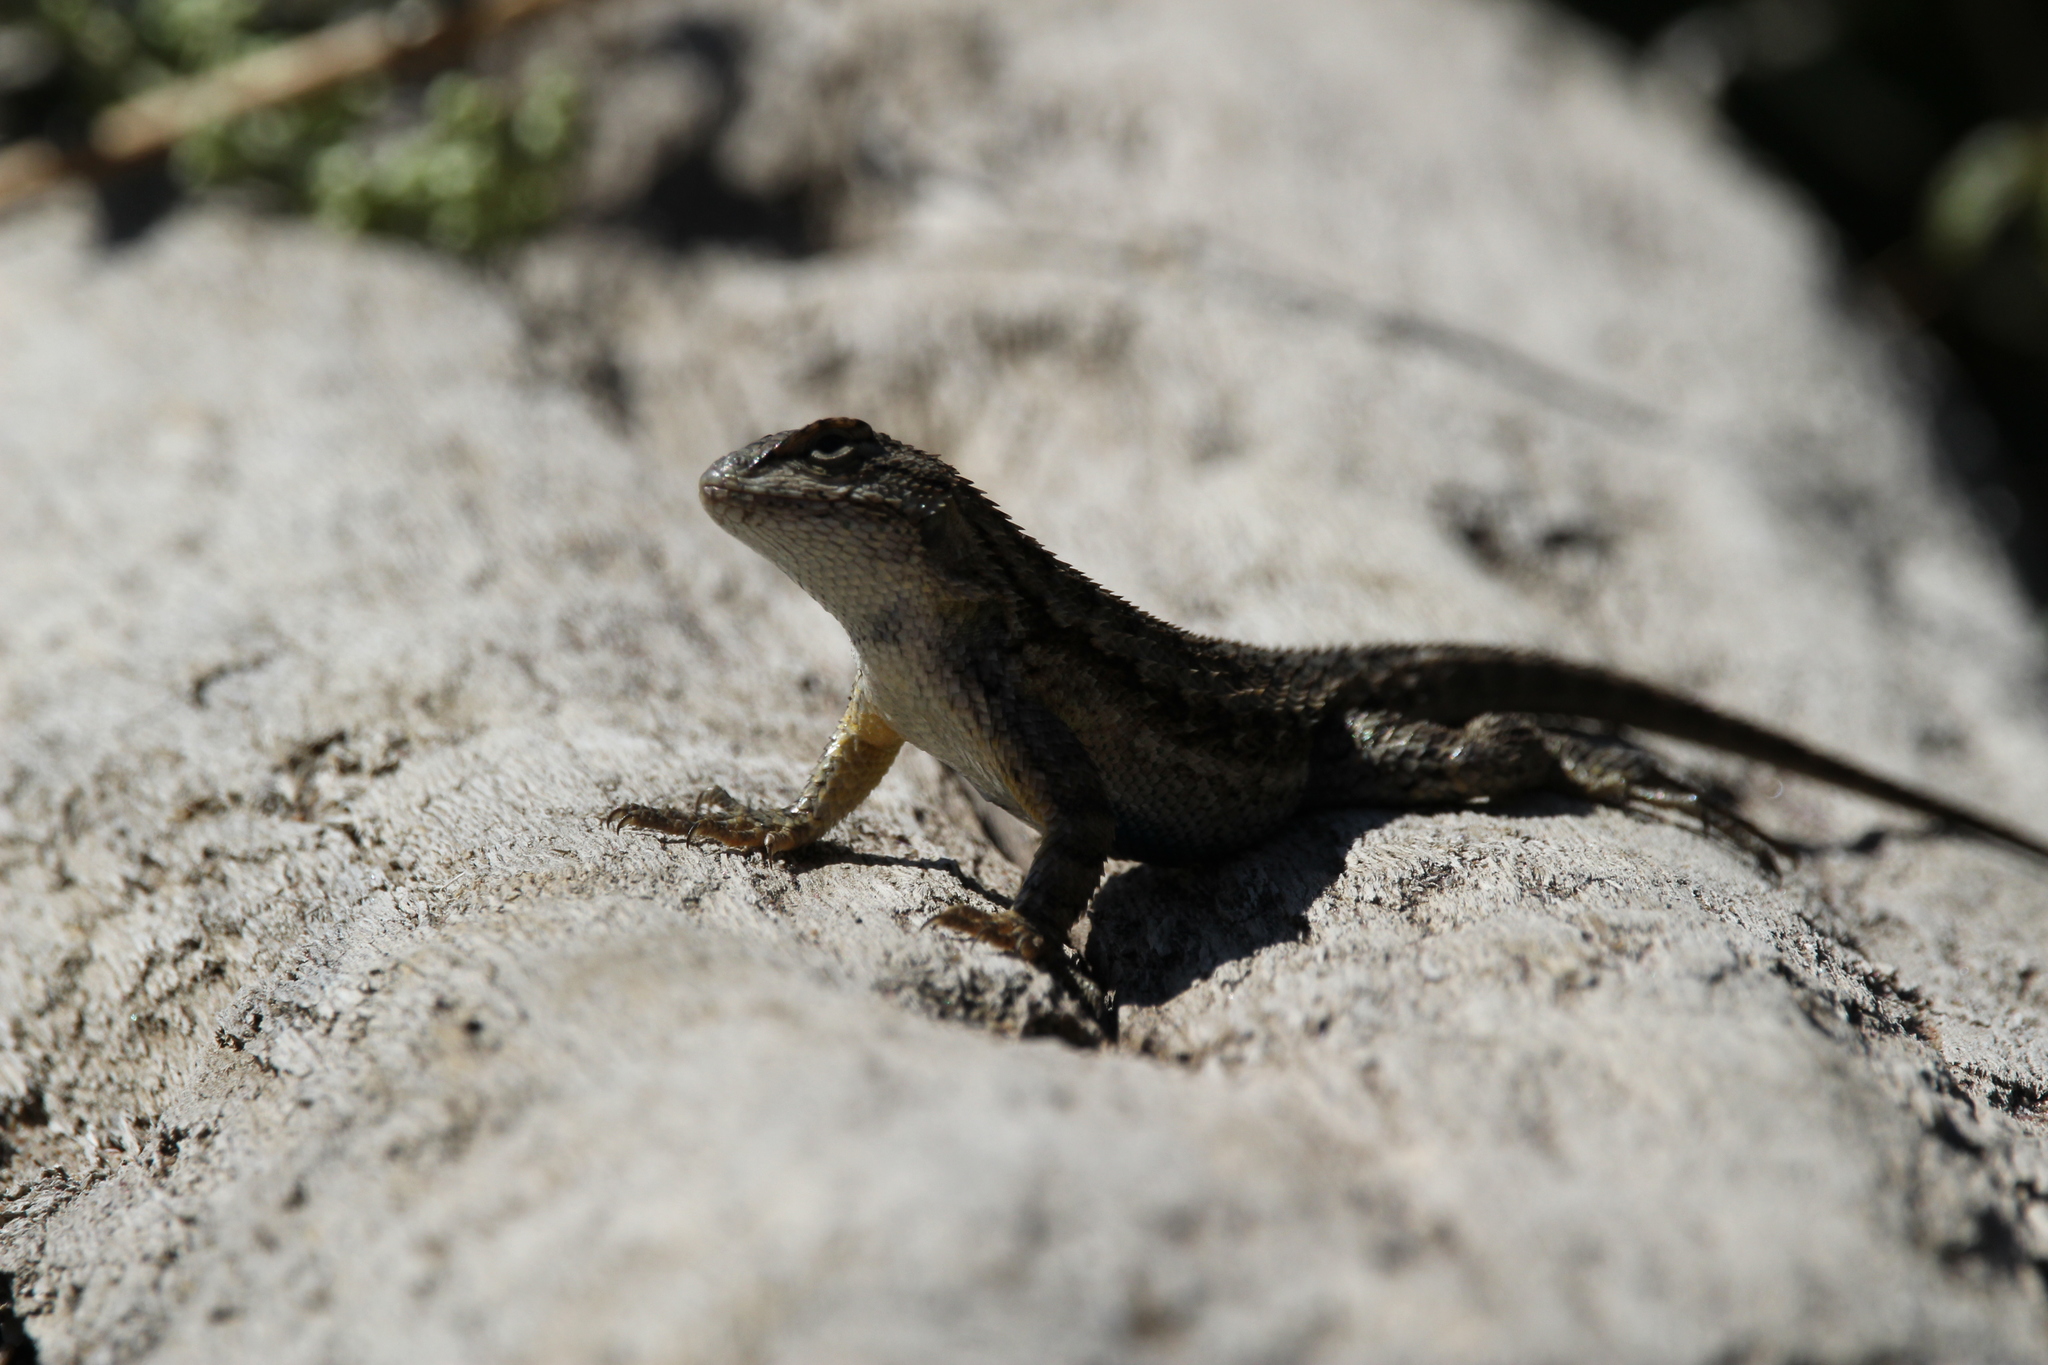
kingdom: Animalia
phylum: Chordata
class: Squamata
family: Phrynosomatidae
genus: Sceloporus
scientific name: Sceloporus occidentalis
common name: Western fence lizard
